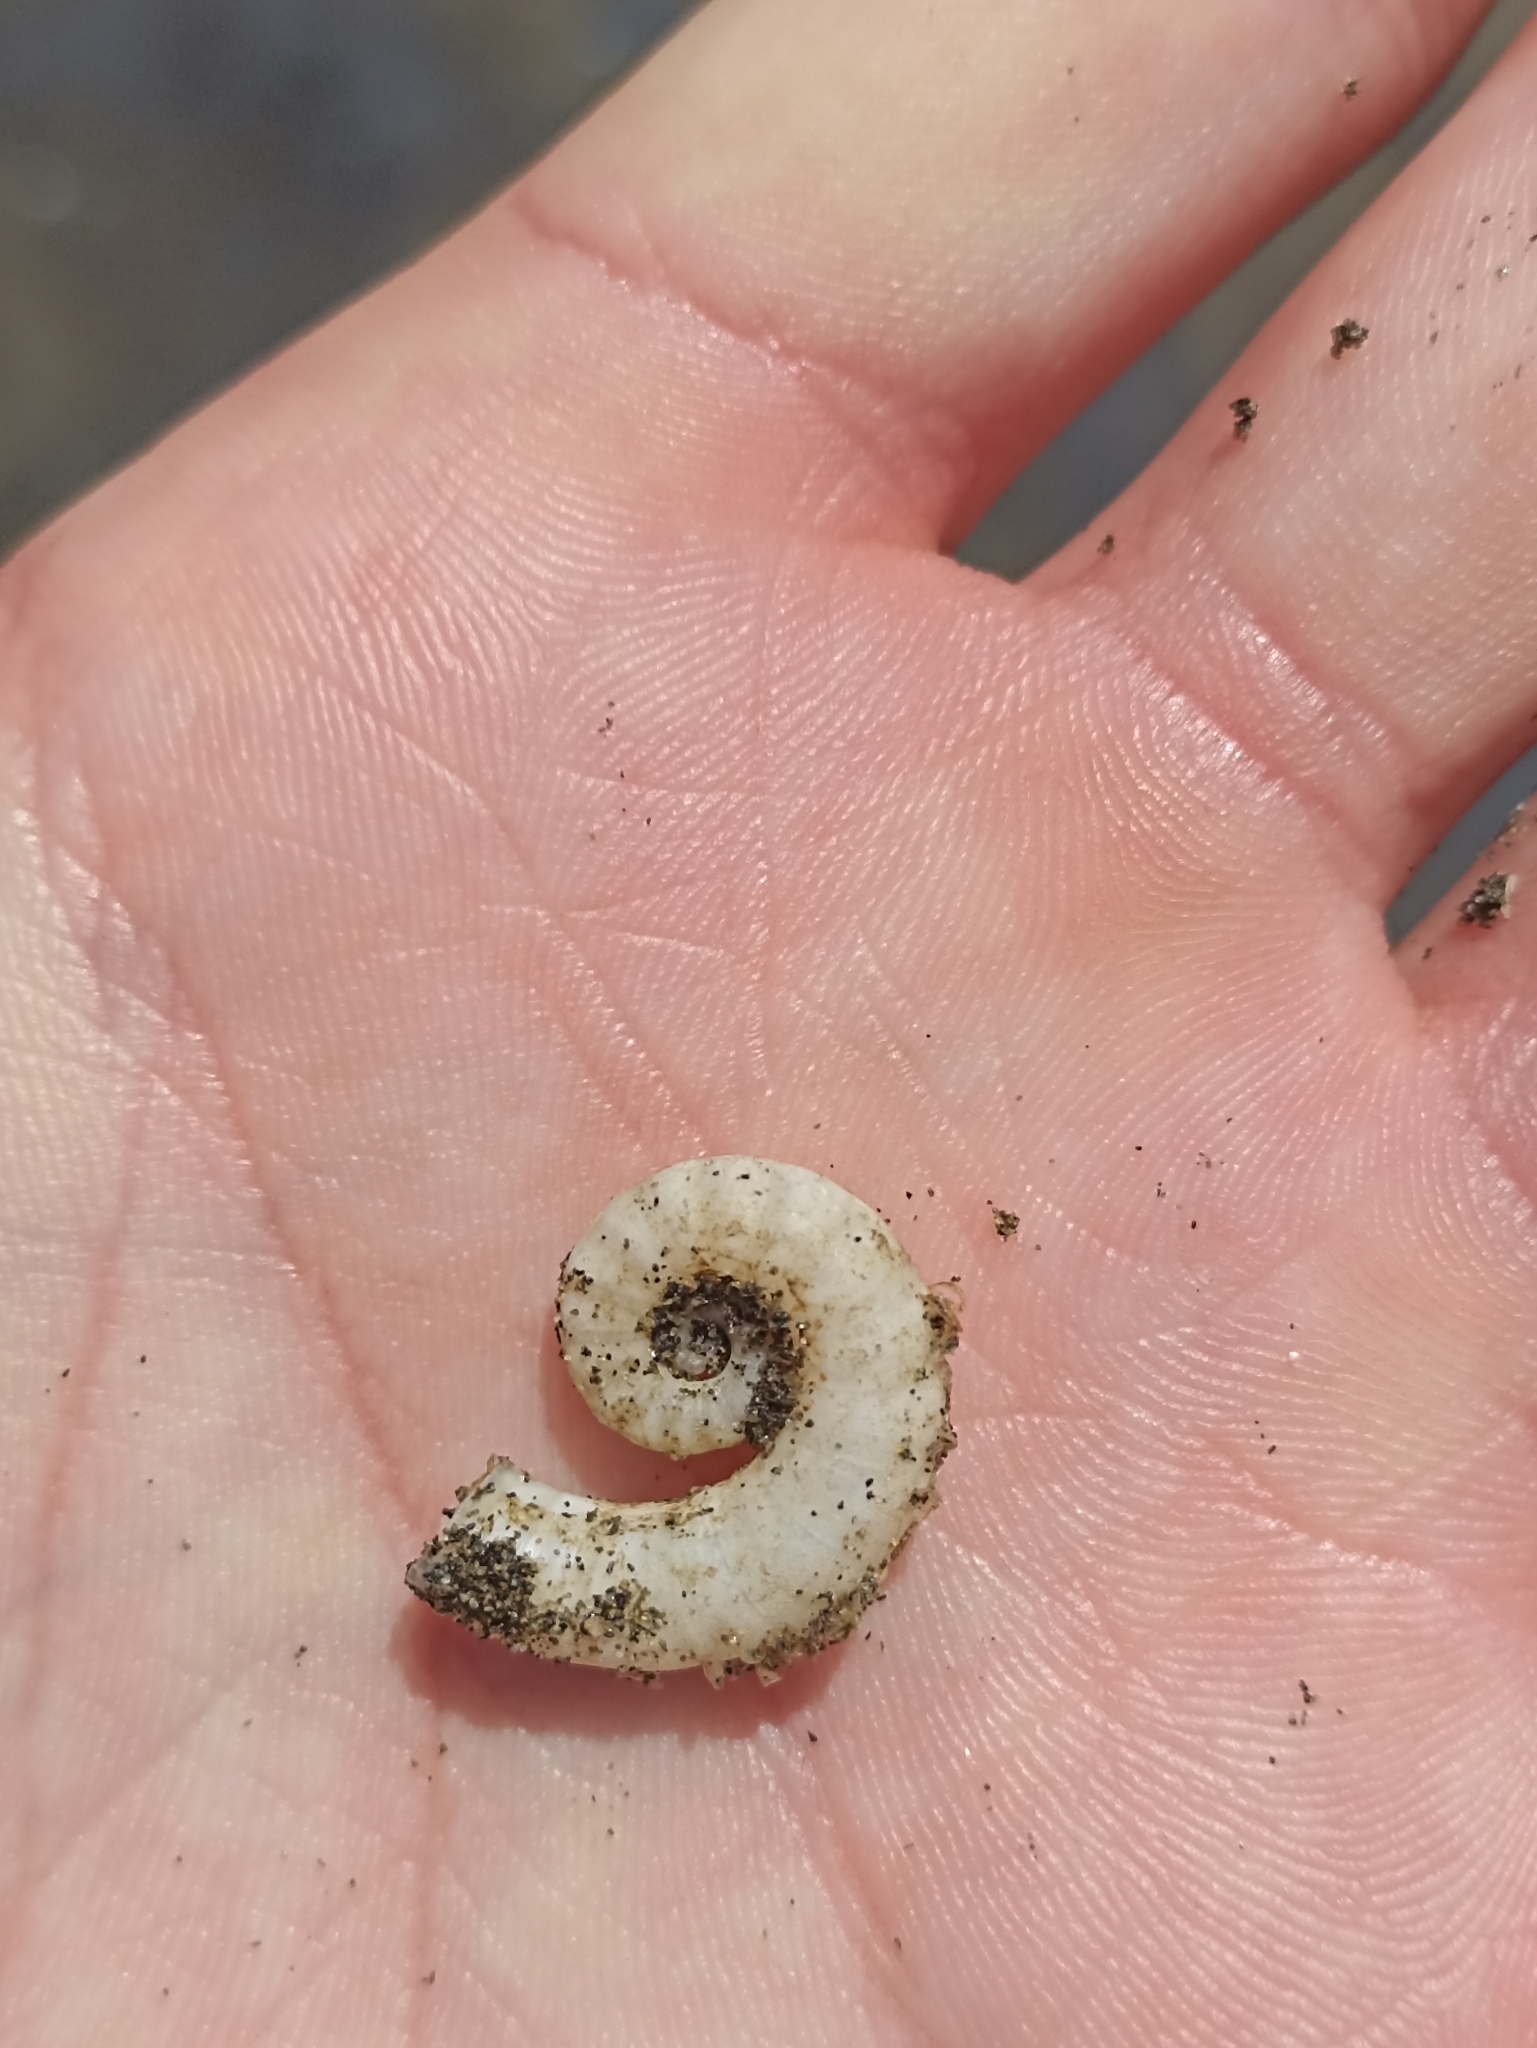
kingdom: Animalia
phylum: Mollusca
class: Cephalopoda
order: Spirulida
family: Spirulidae
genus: Spirula
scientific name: Spirula spirula
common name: Ram's horn squid
